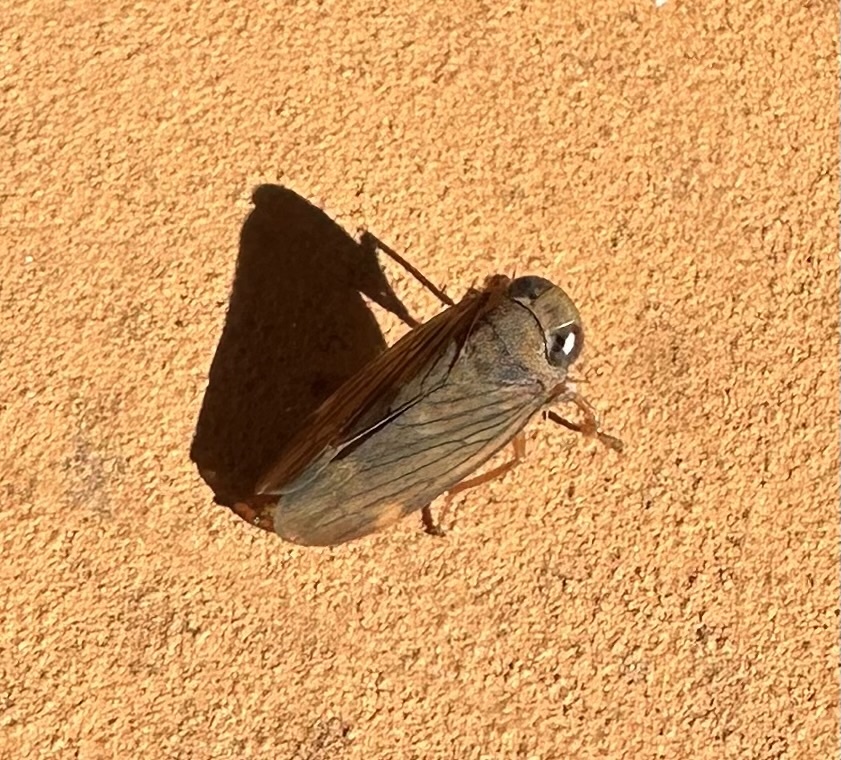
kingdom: Animalia
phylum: Arthropoda
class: Insecta
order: Hemiptera
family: Cicadellidae
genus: Jikradia
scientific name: Jikradia olitoria
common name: Coppery leafhopper
